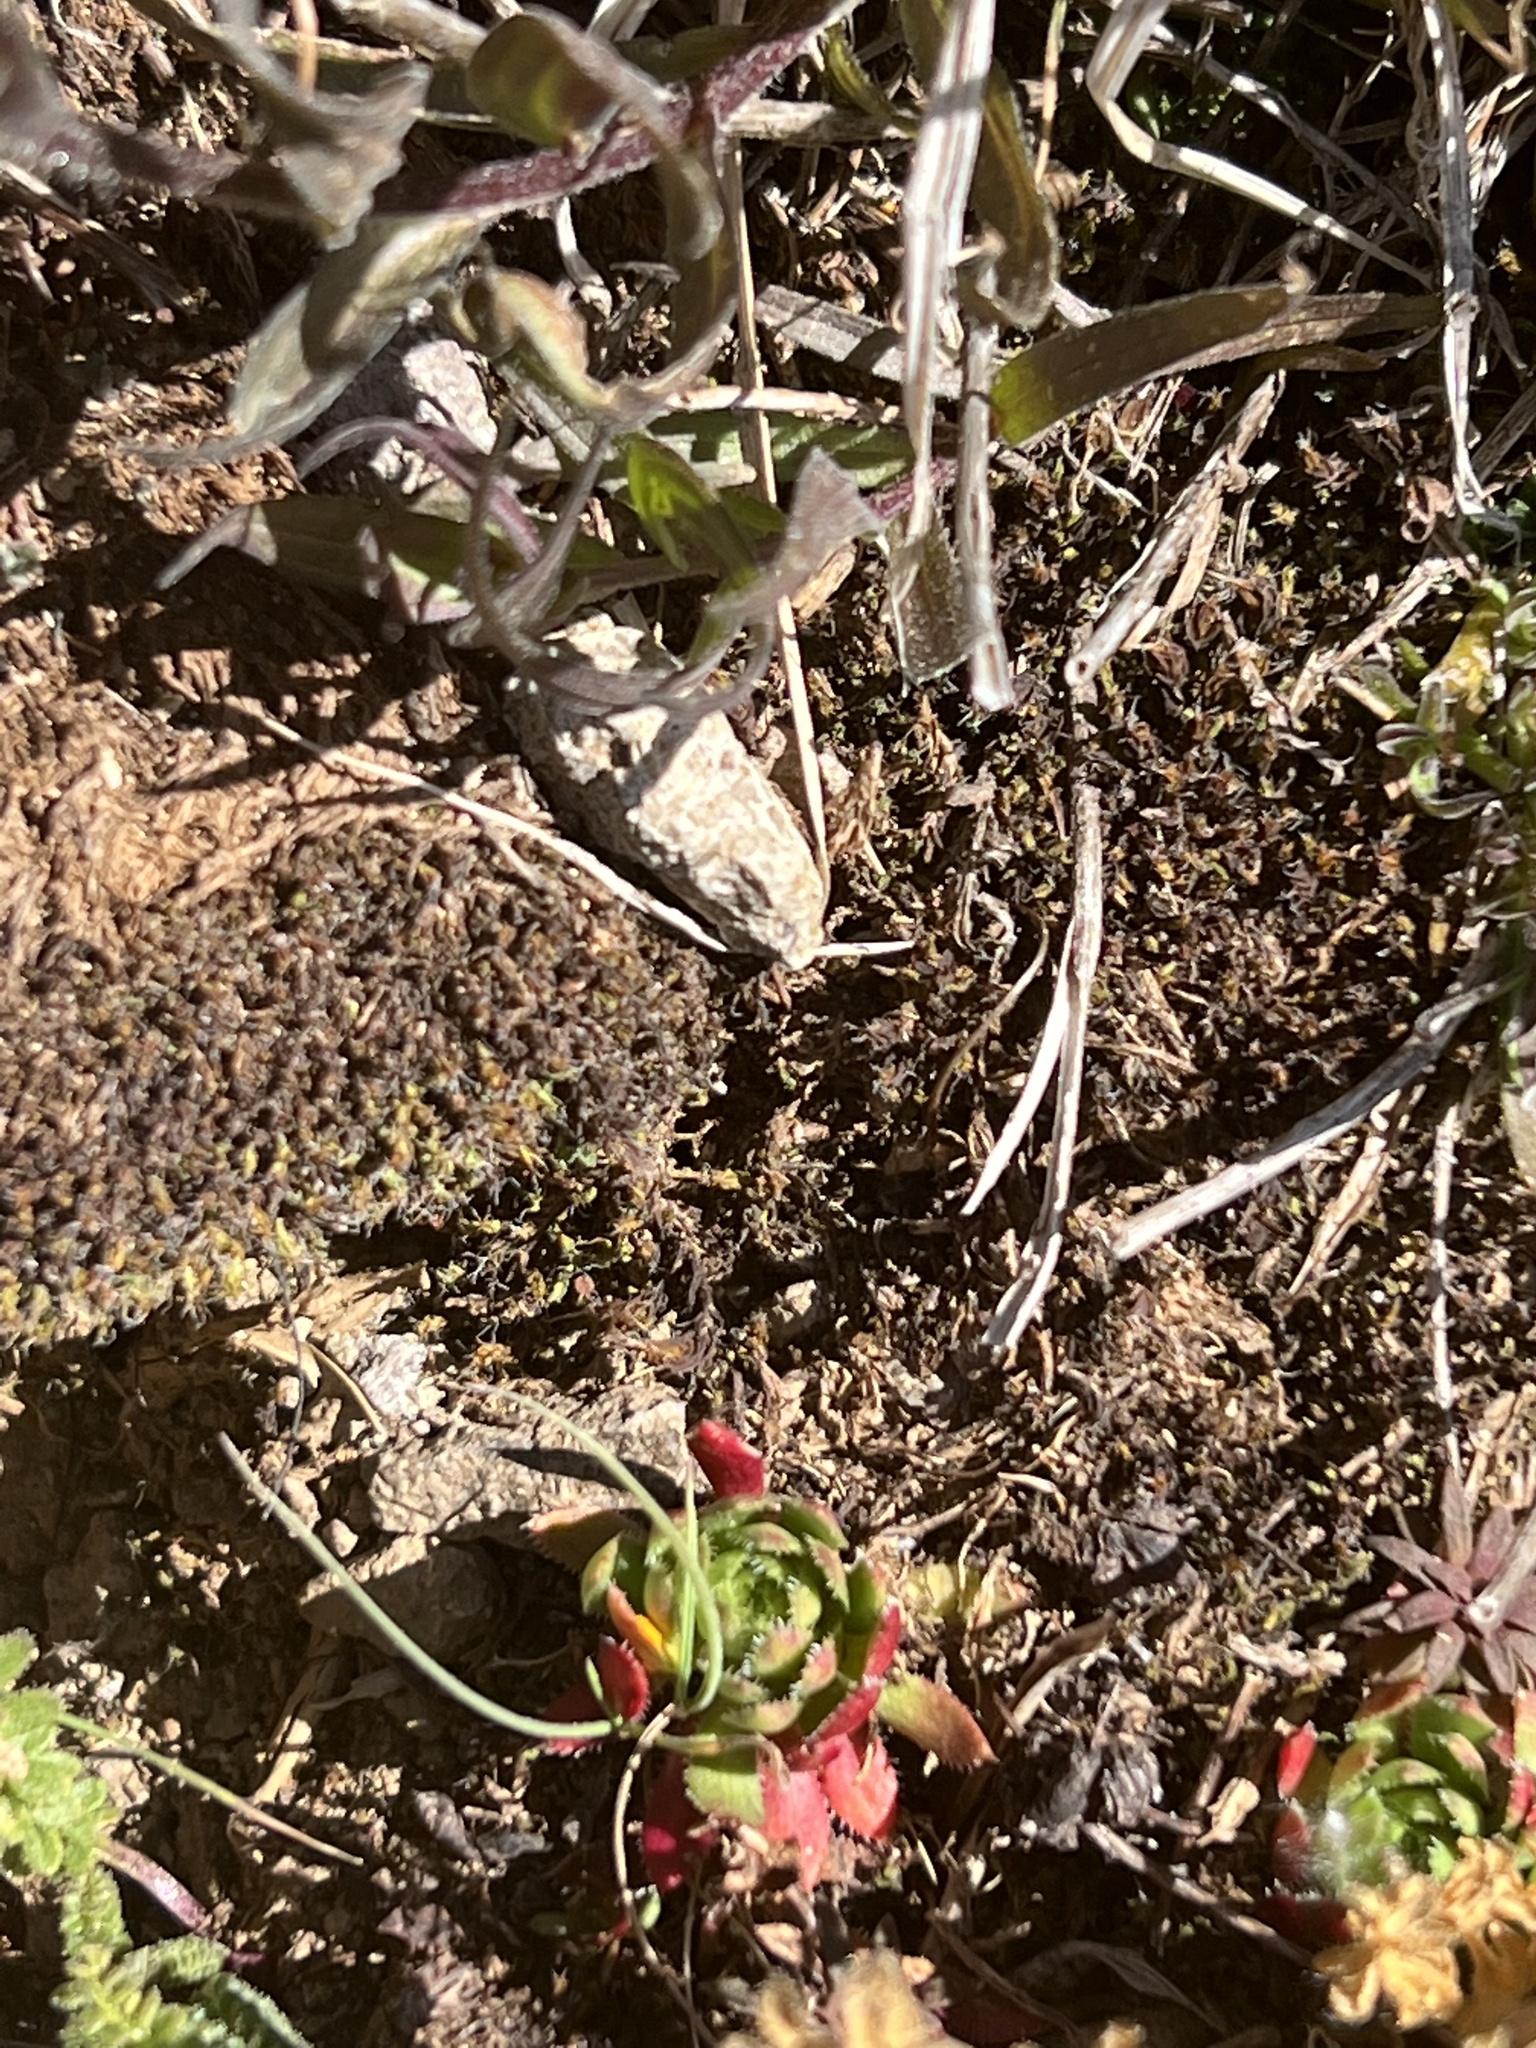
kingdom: Plantae
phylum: Tracheophyta
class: Magnoliopsida
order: Saxifragales
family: Saxifragaceae
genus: Saxifraga
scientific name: Saxifraga flagellaris
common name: Spider saxifrage
